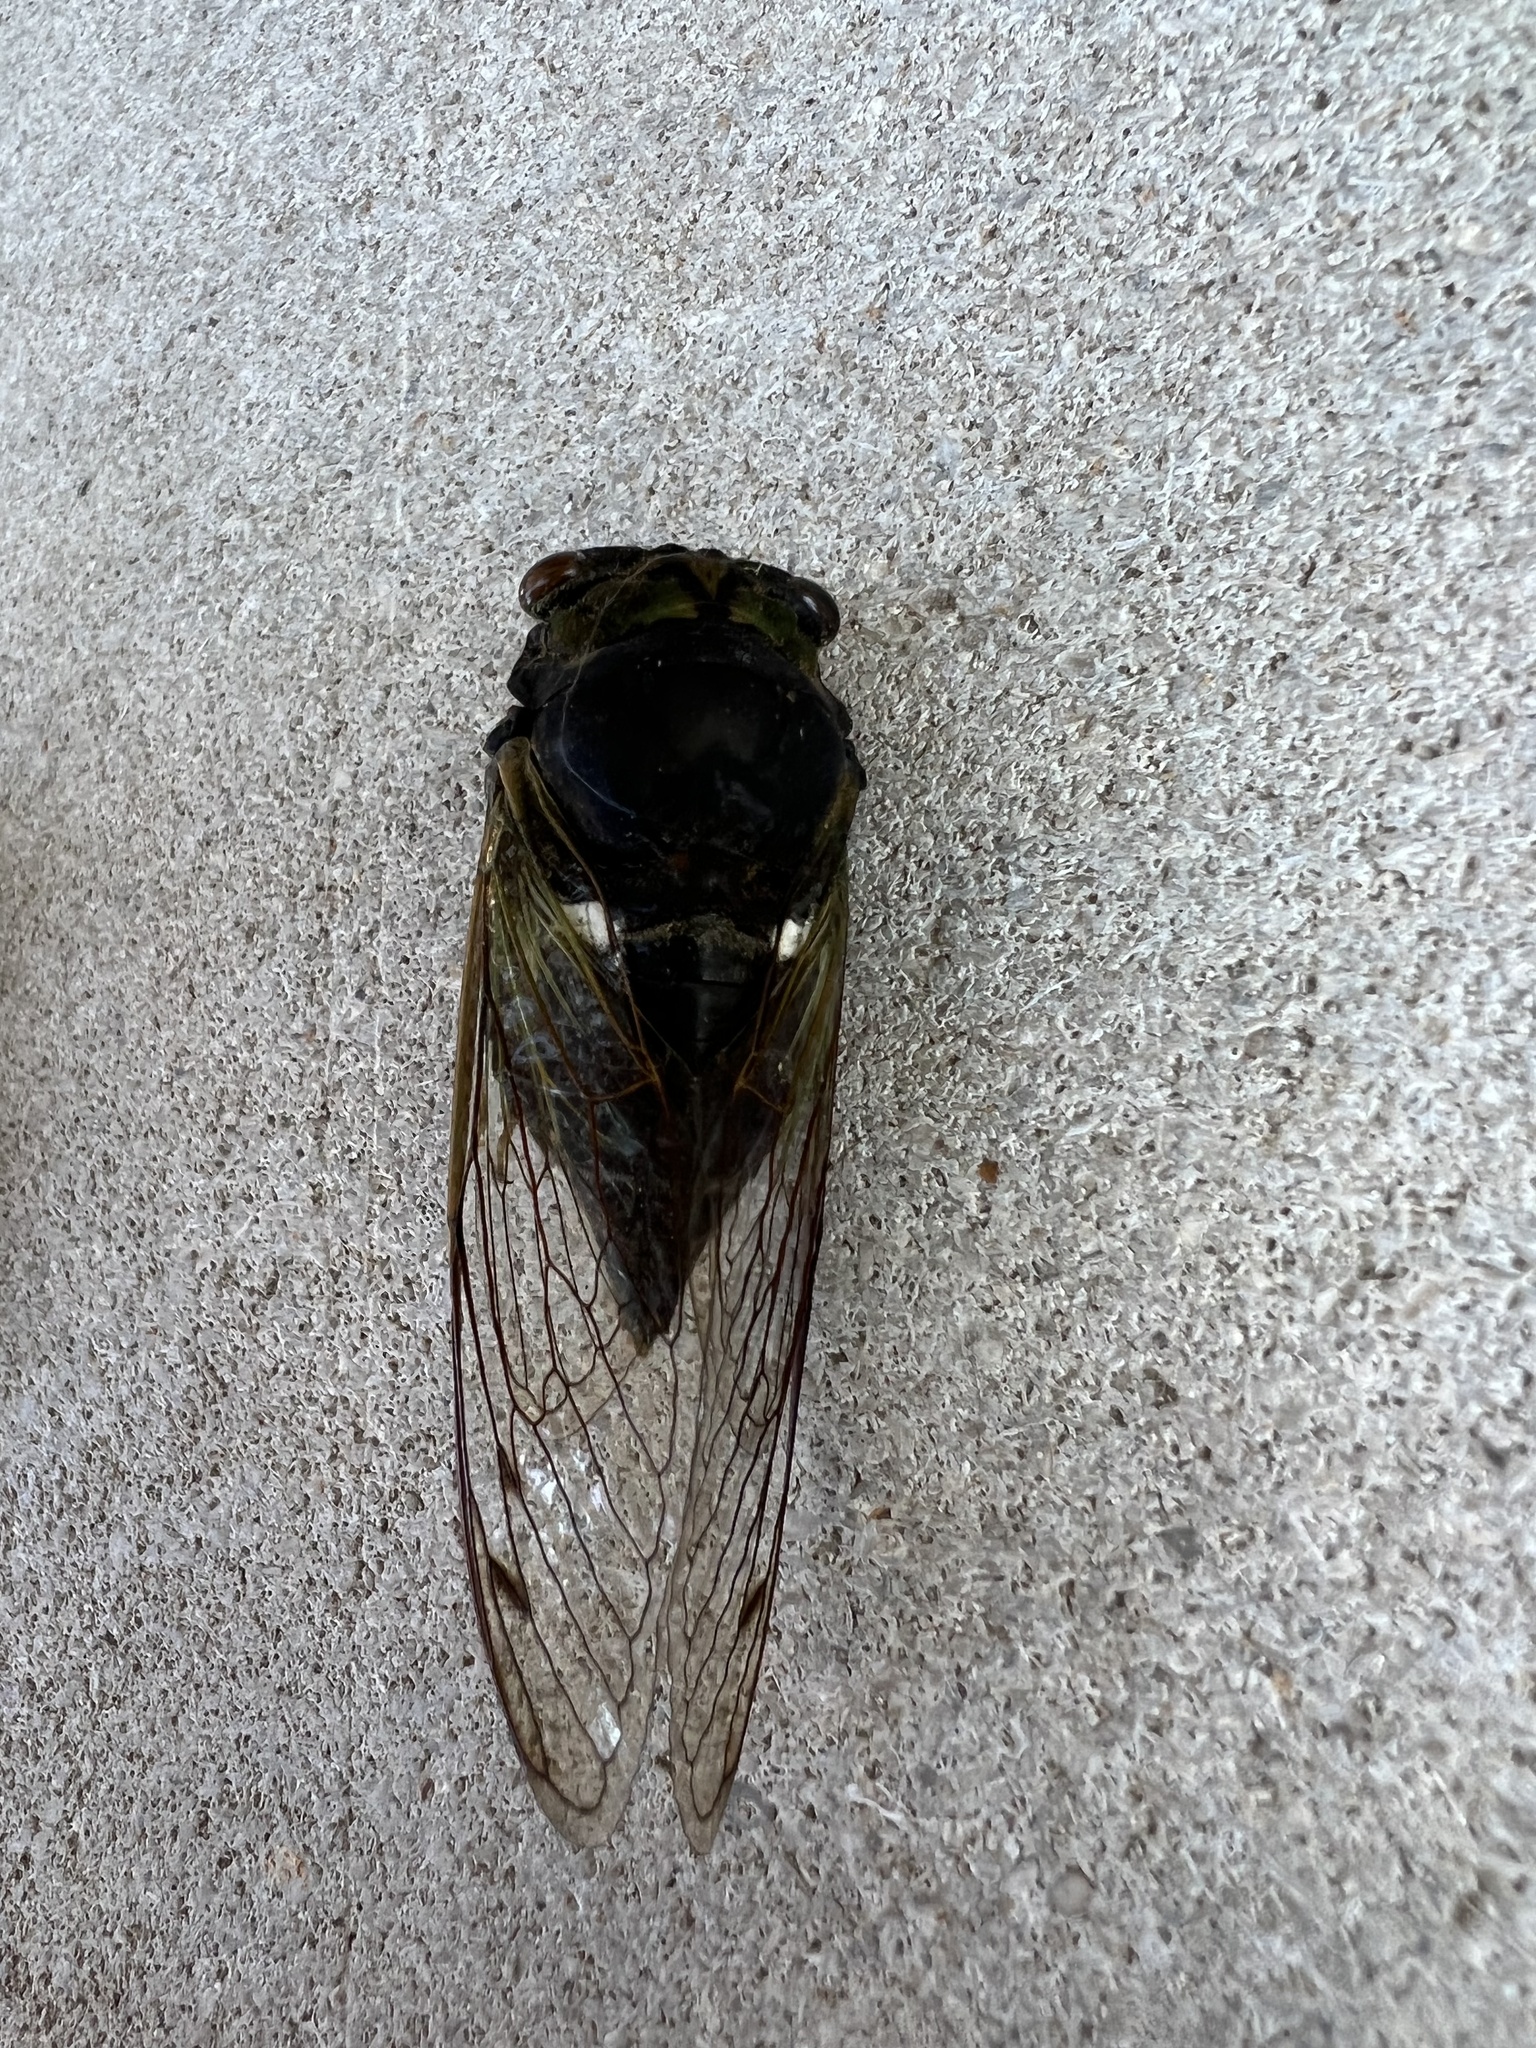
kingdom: Animalia
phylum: Arthropoda
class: Insecta
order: Hemiptera
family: Cicadidae
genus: Neotibicen
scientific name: Neotibicen tibicen
